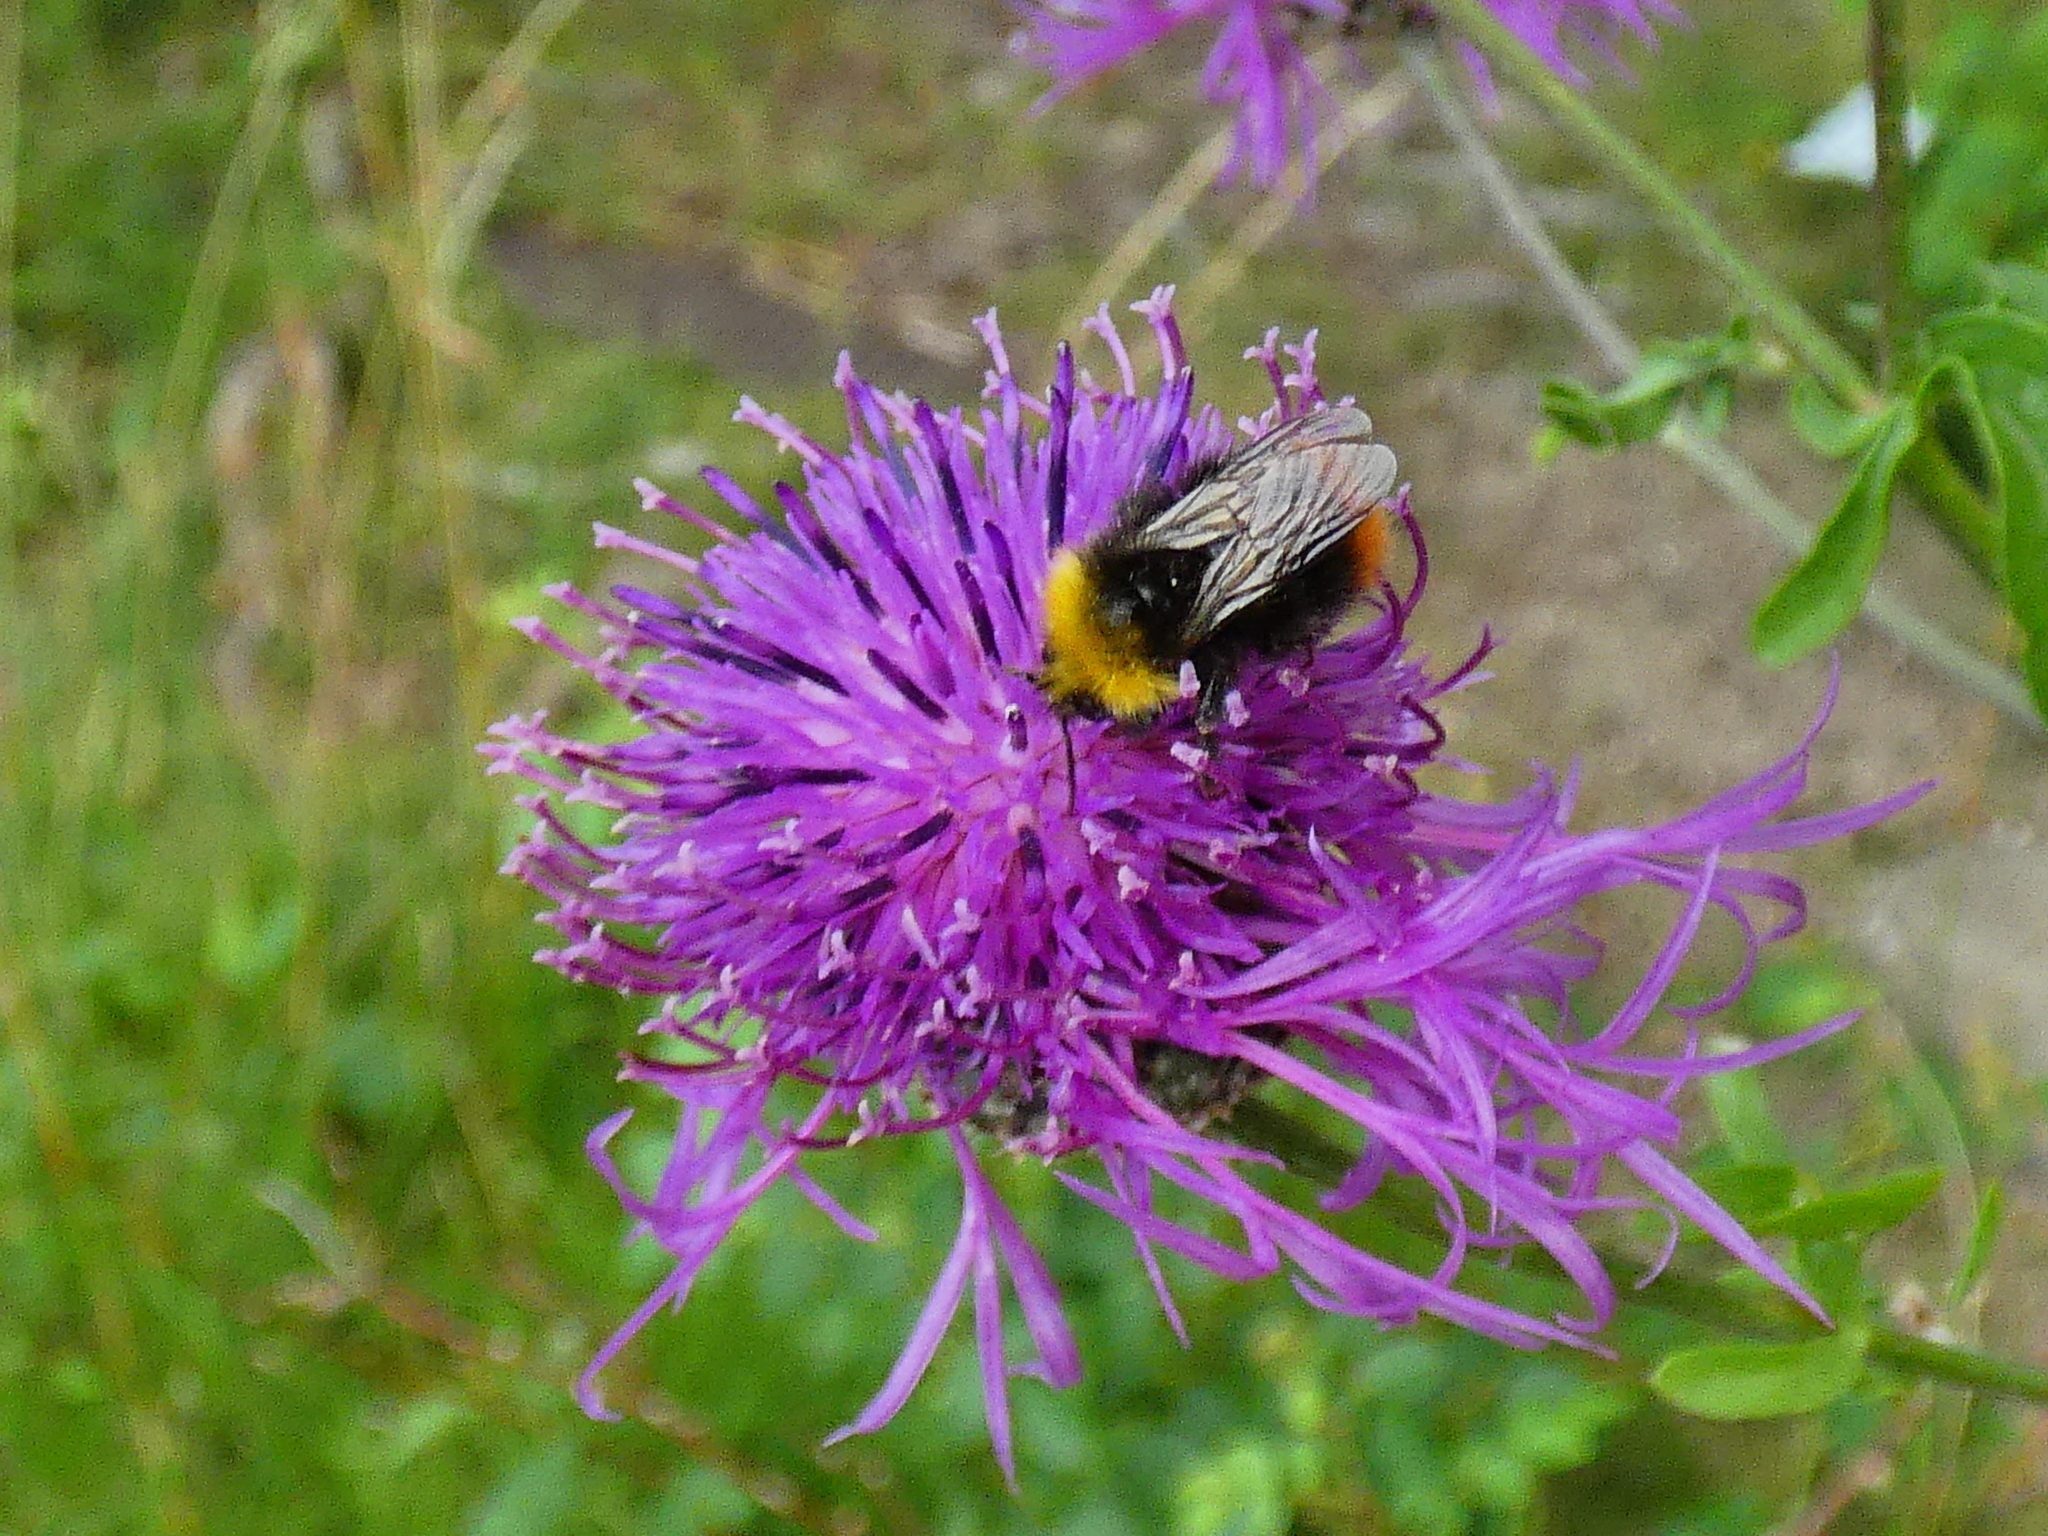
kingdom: Animalia
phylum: Arthropoda
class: Insecta
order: Hymenoptera
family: Apidae
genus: Bombus
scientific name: Bombus pratorum
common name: Early humble-bee
